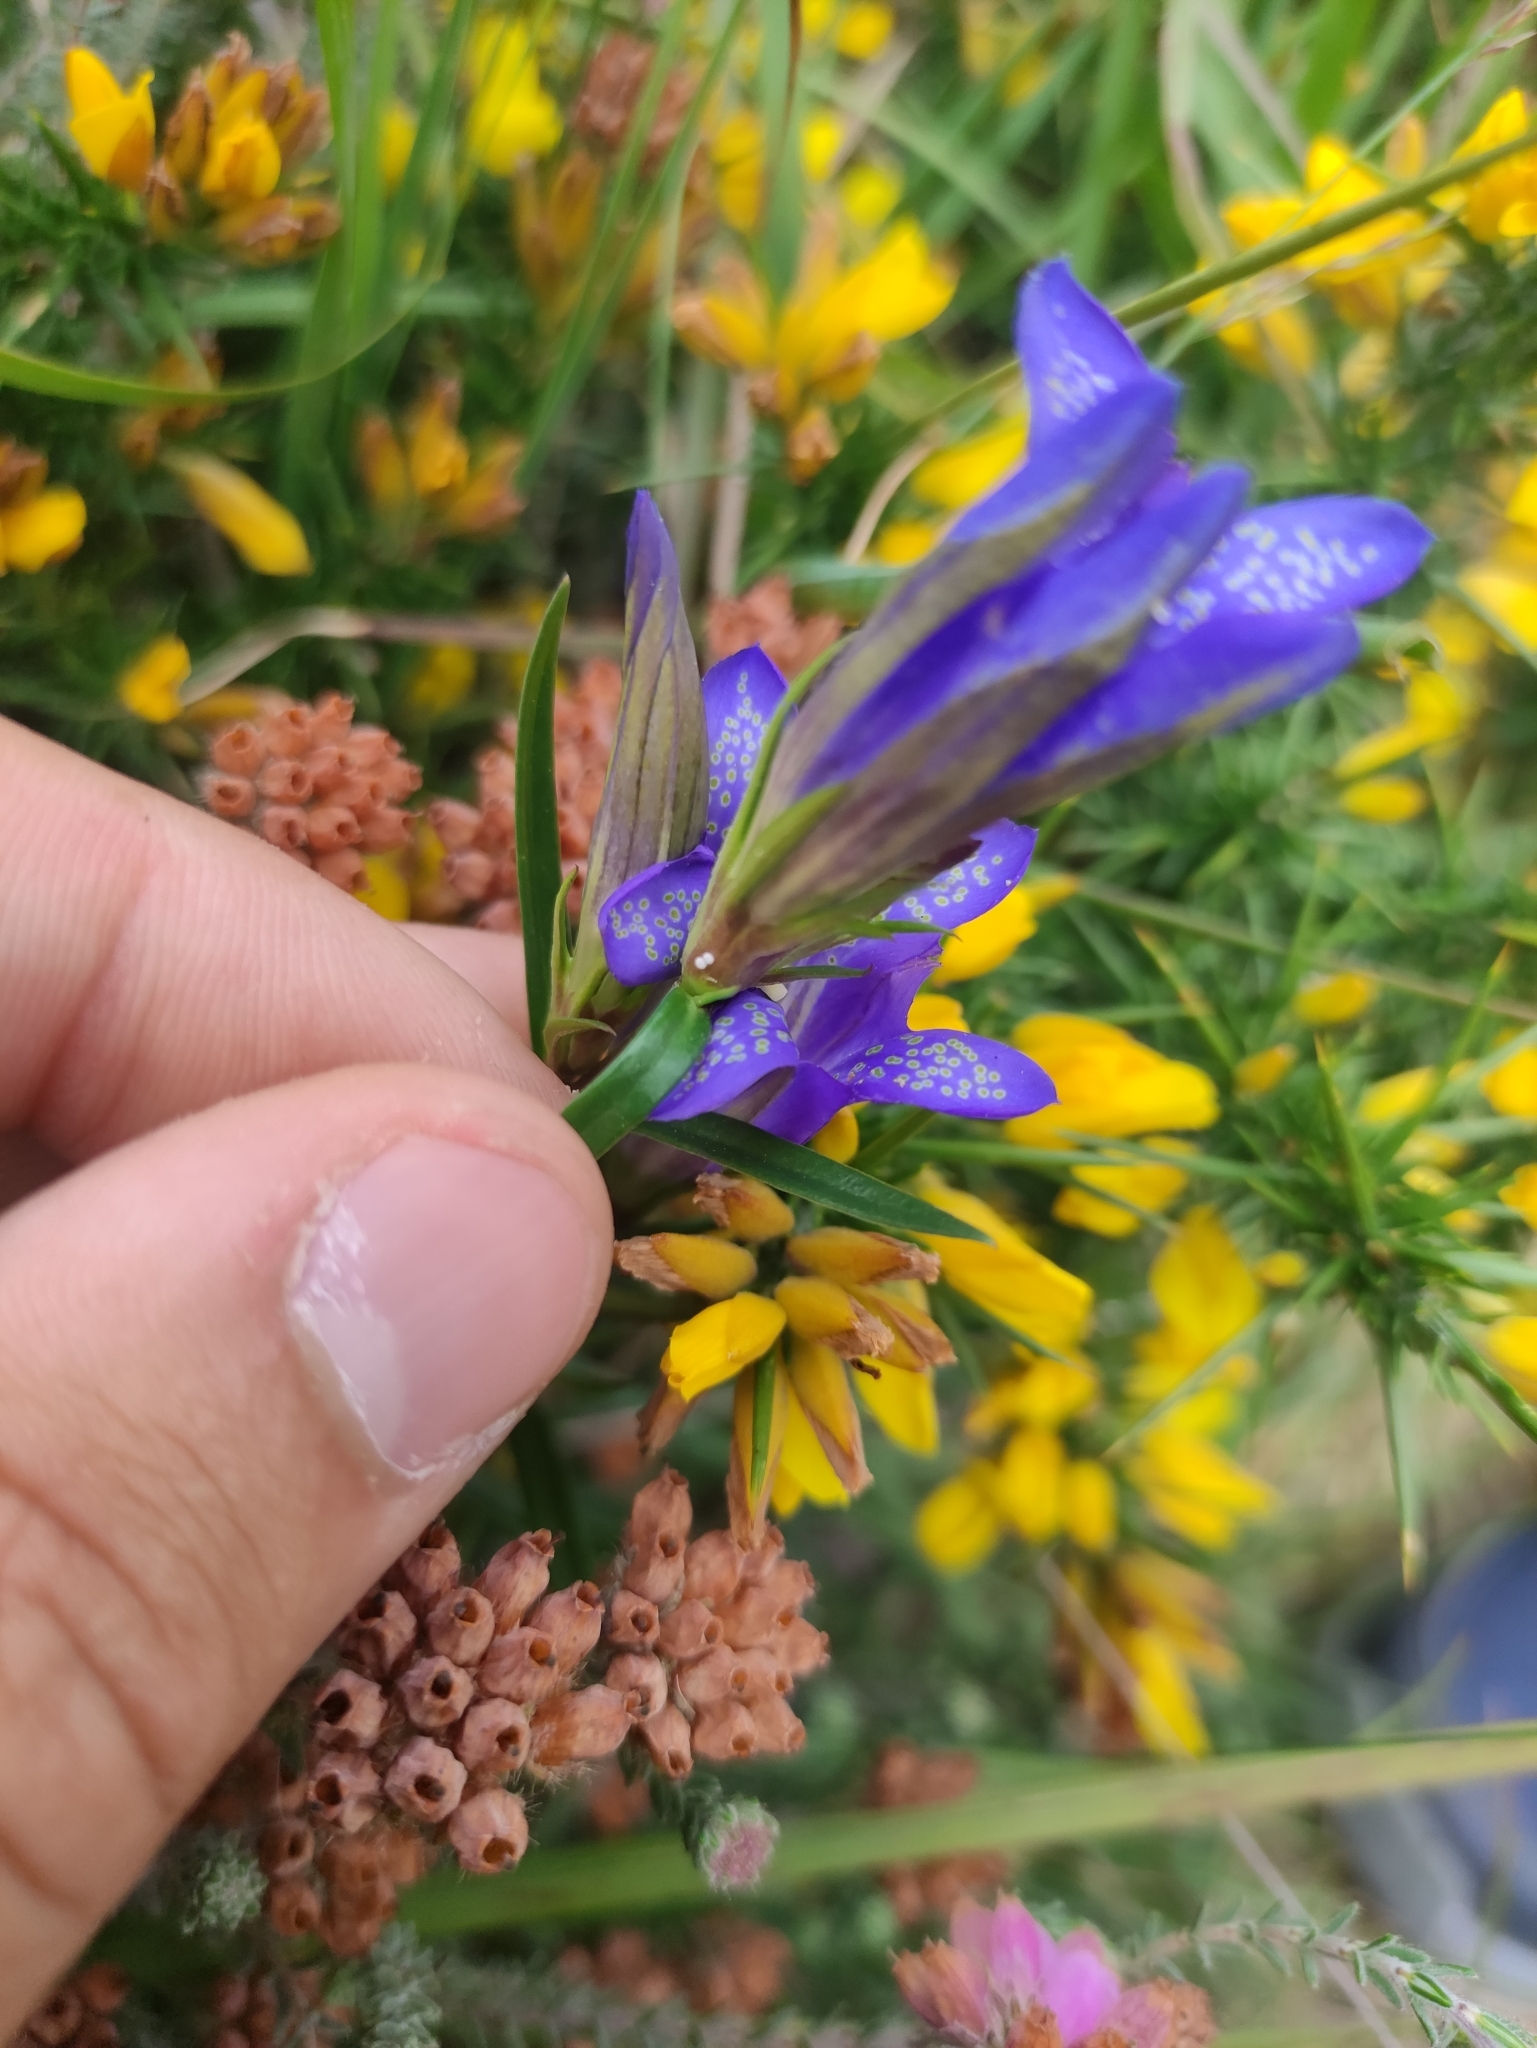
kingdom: Animalia
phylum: Arthropoda
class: Insecta
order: Lepidoptera
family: Lycaenidae
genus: Maculinea
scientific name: Maculinea alcon
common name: Alcon blue
